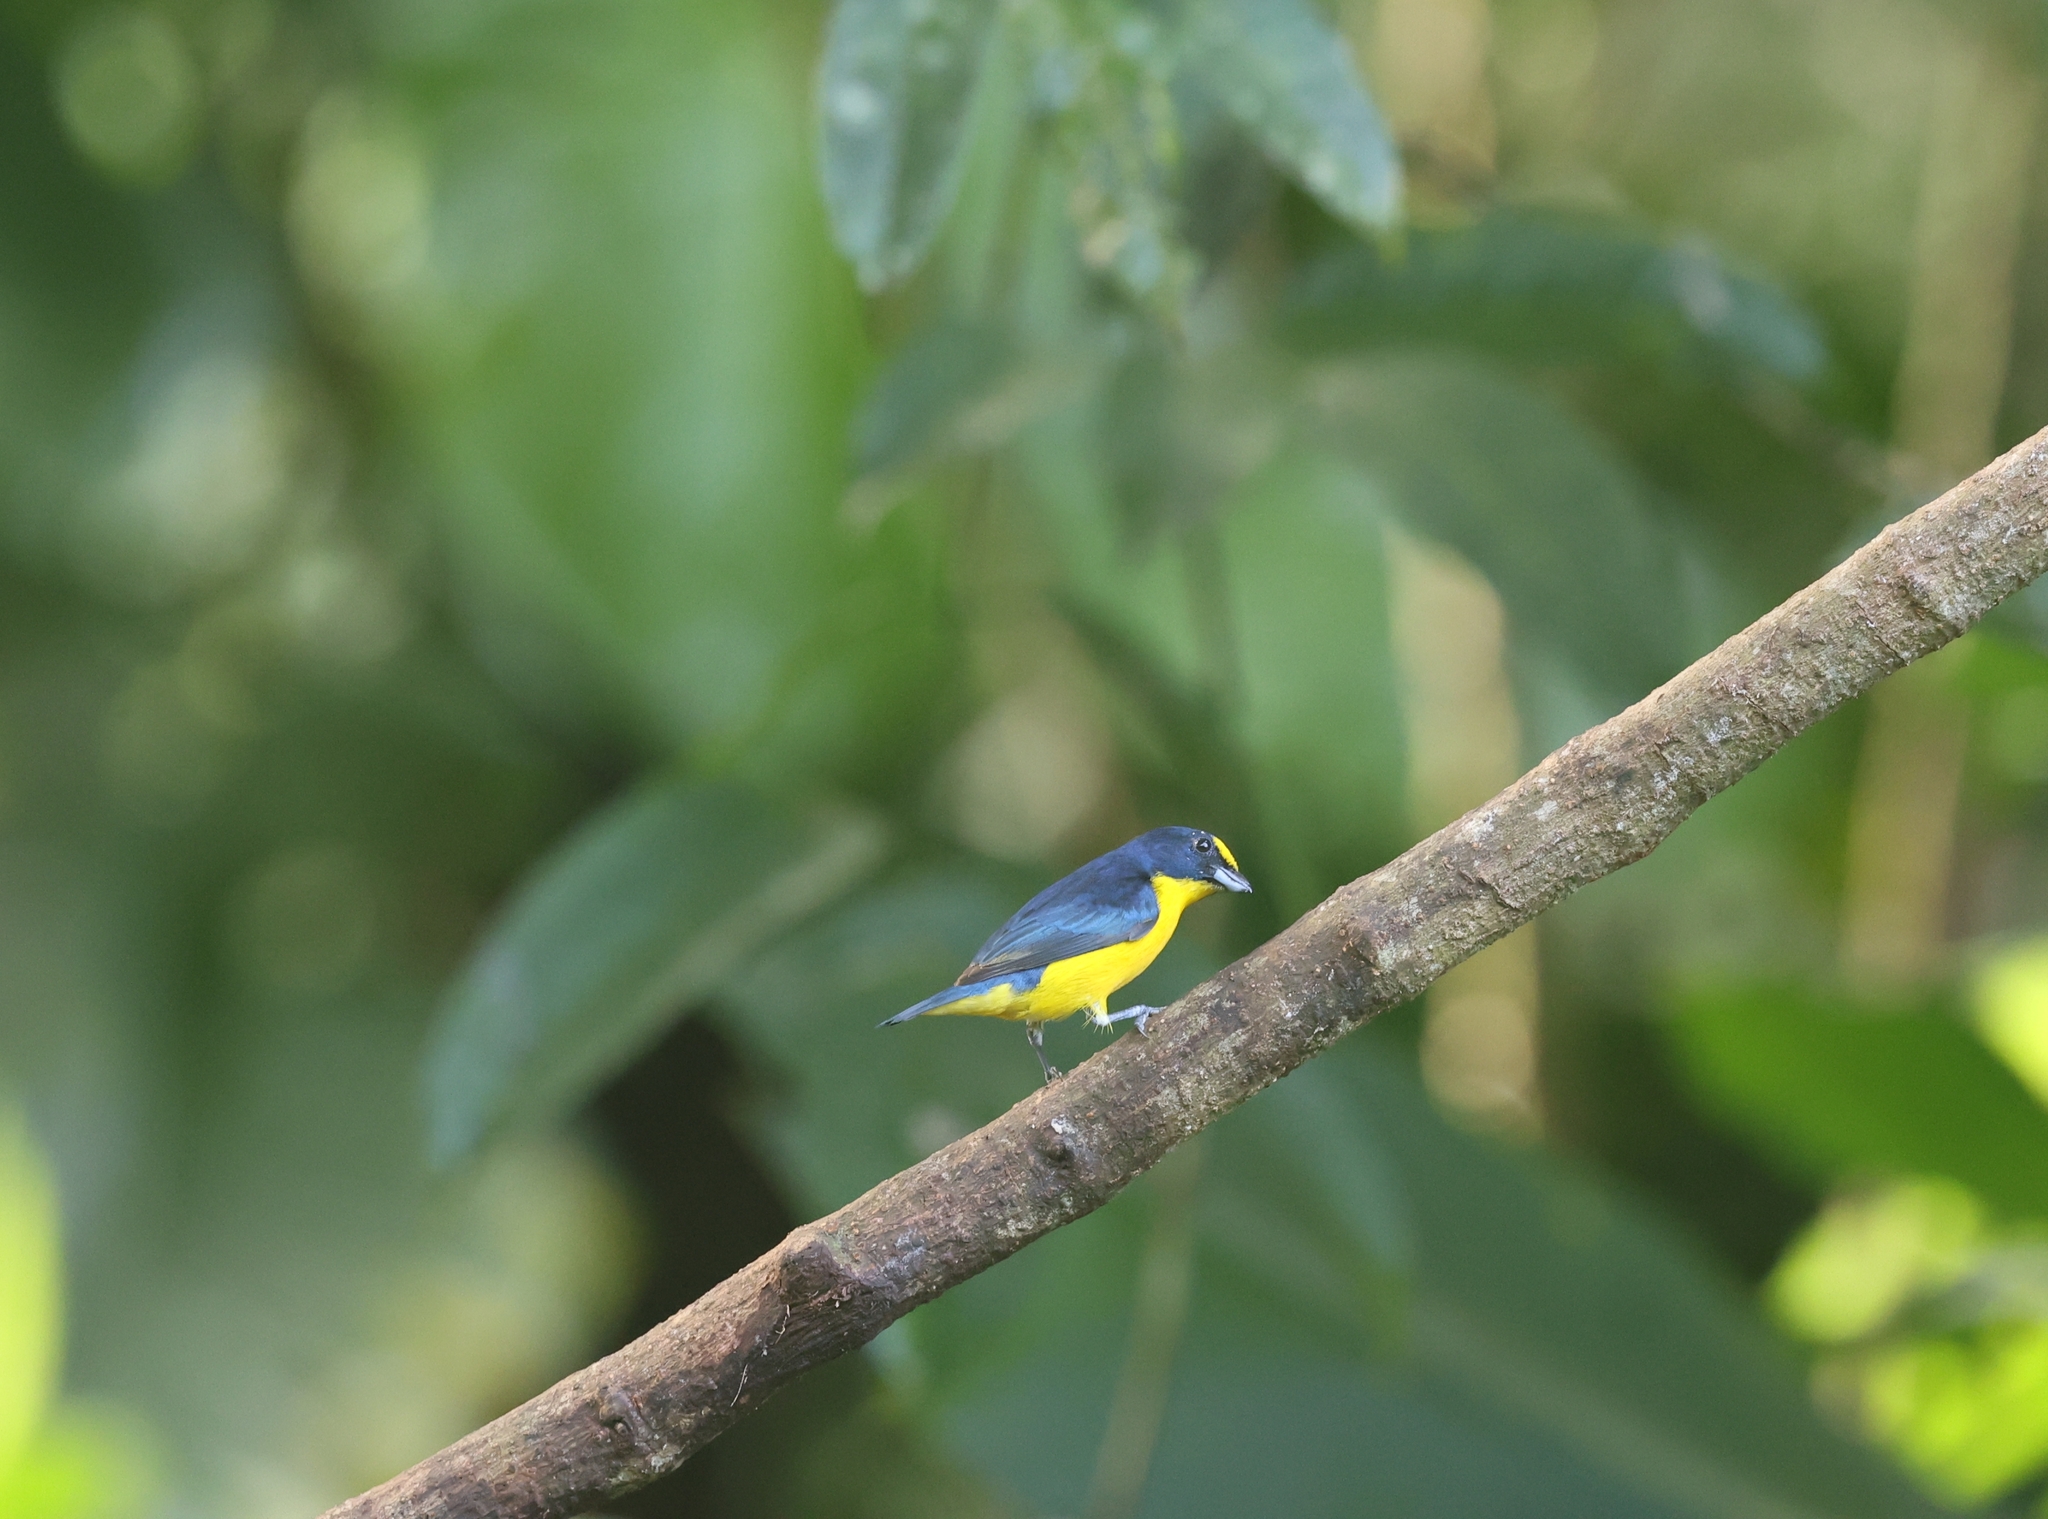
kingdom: Animalia
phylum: Chordata
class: Aves
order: Passeriformes
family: Fringillidae
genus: Euphonia
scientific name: Euphonia hirundinacea
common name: Yellow-throated euphonia
